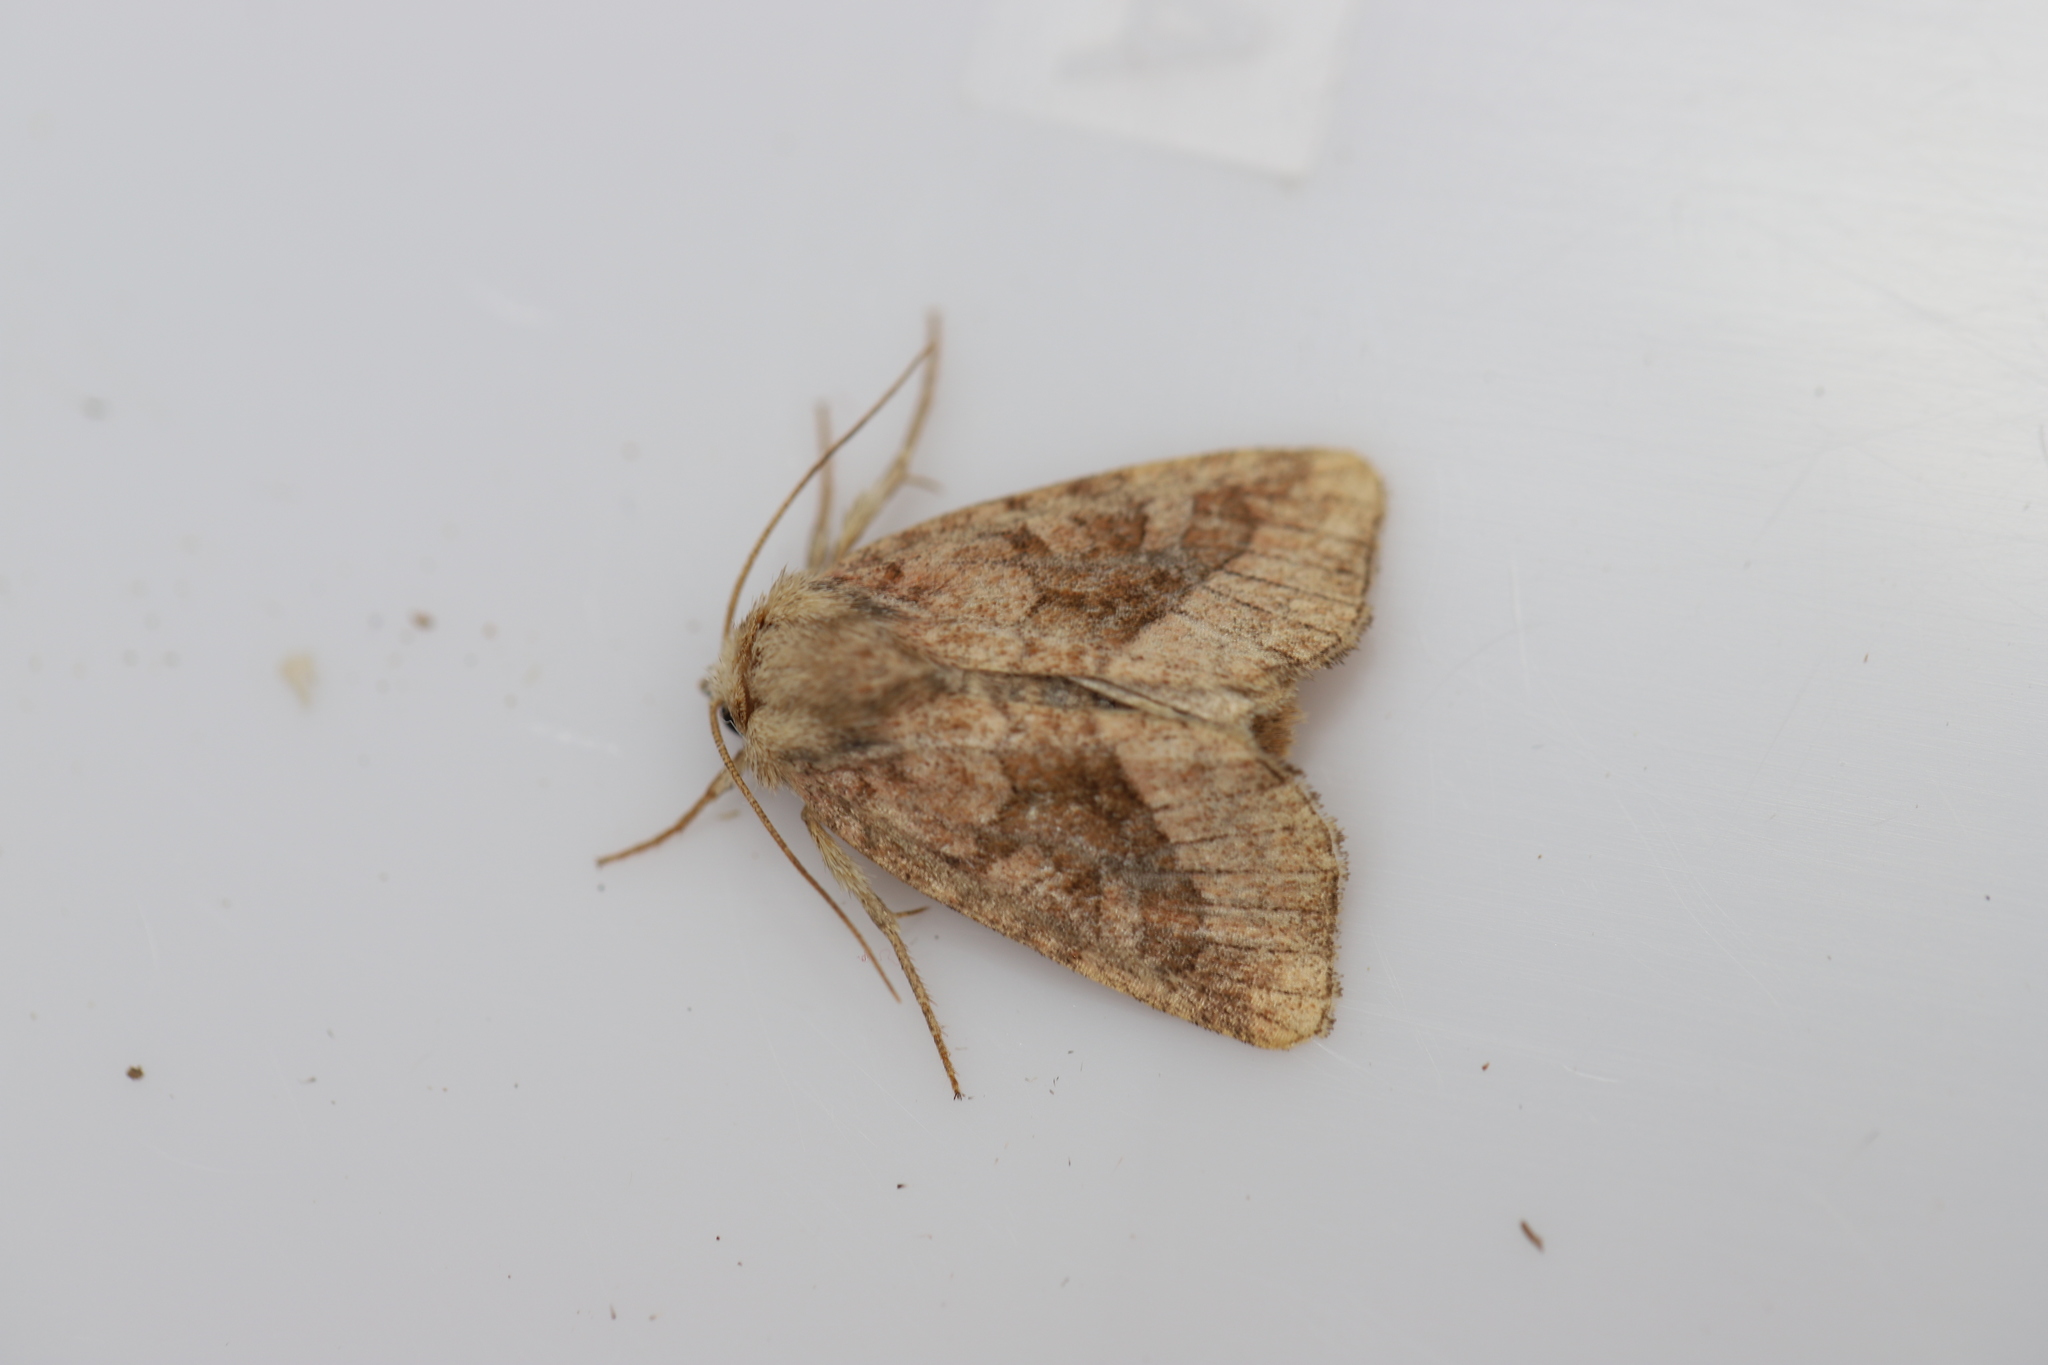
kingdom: Animalia
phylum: Arthropoda
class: Insecta
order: Lepidoptera
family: Noctuidae
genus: Lacinipolia
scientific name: Lacinipolia lorea
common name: Bridled arches moth
